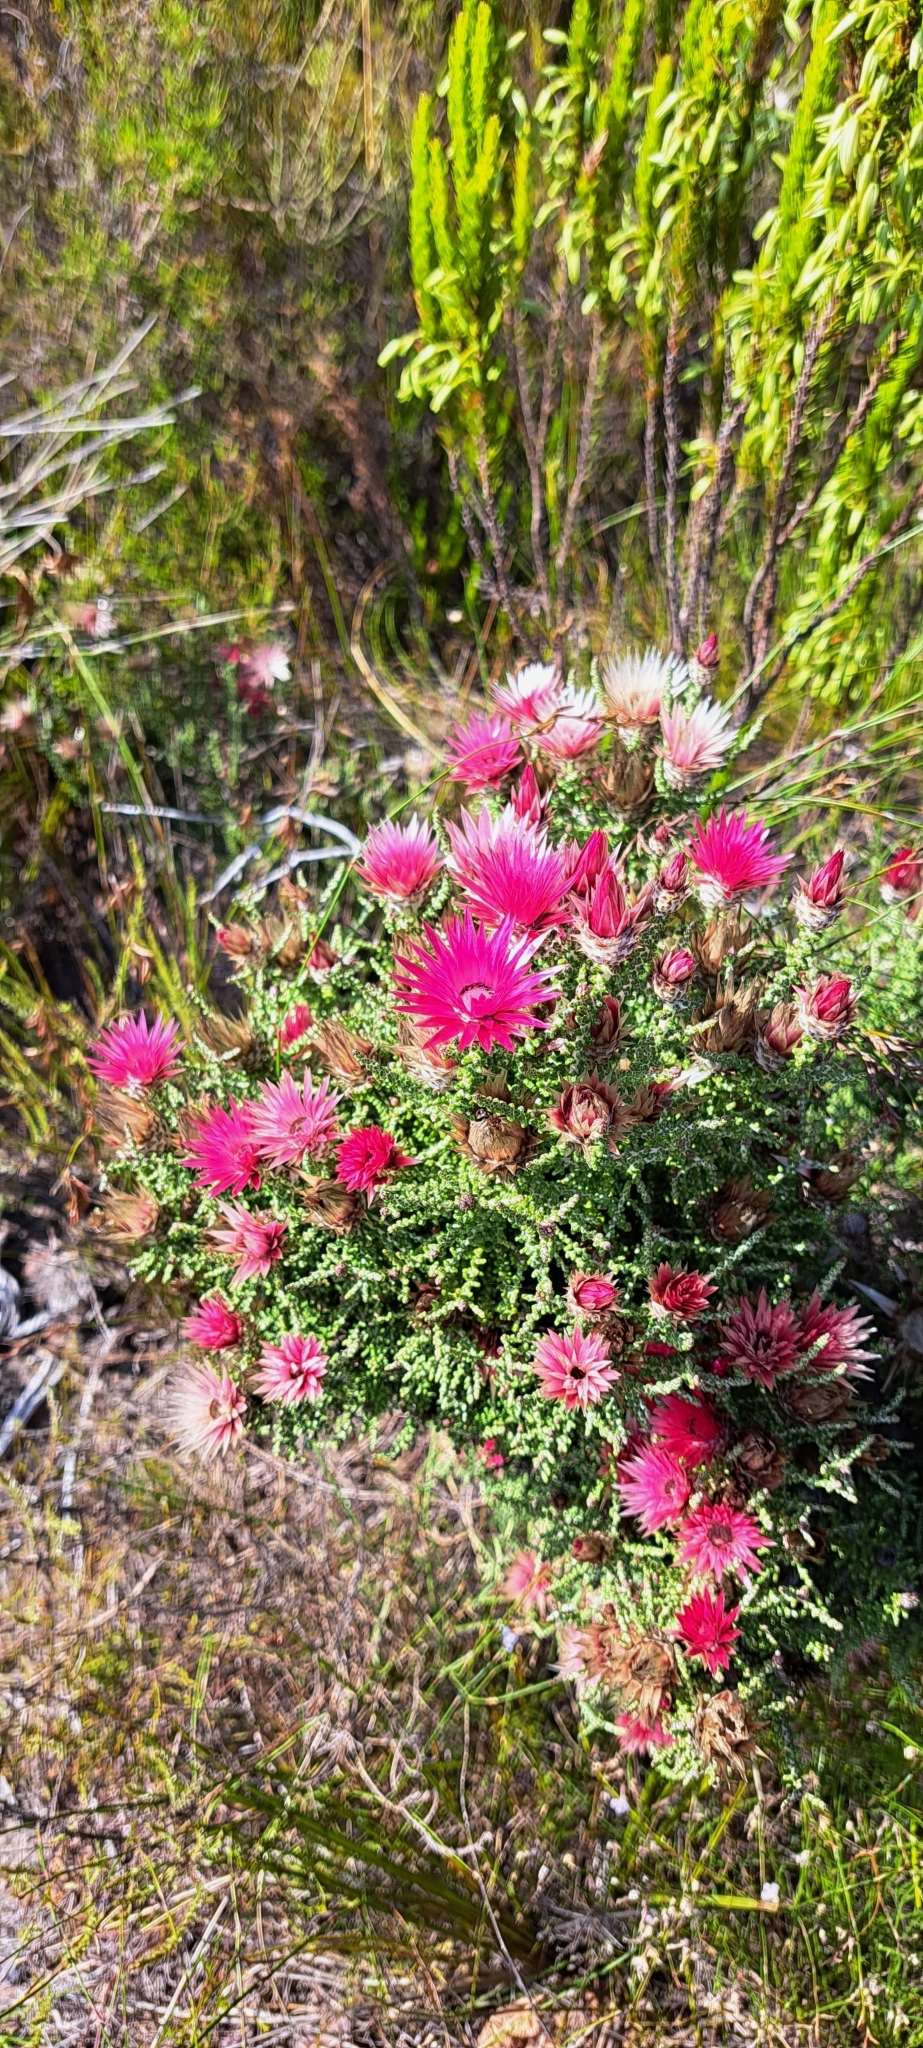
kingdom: Plantae
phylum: Tracheophyta
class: Magnoliopsida
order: Asterales
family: Asteraceae
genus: Phaenocoma
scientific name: Phaenocoma prolifera
